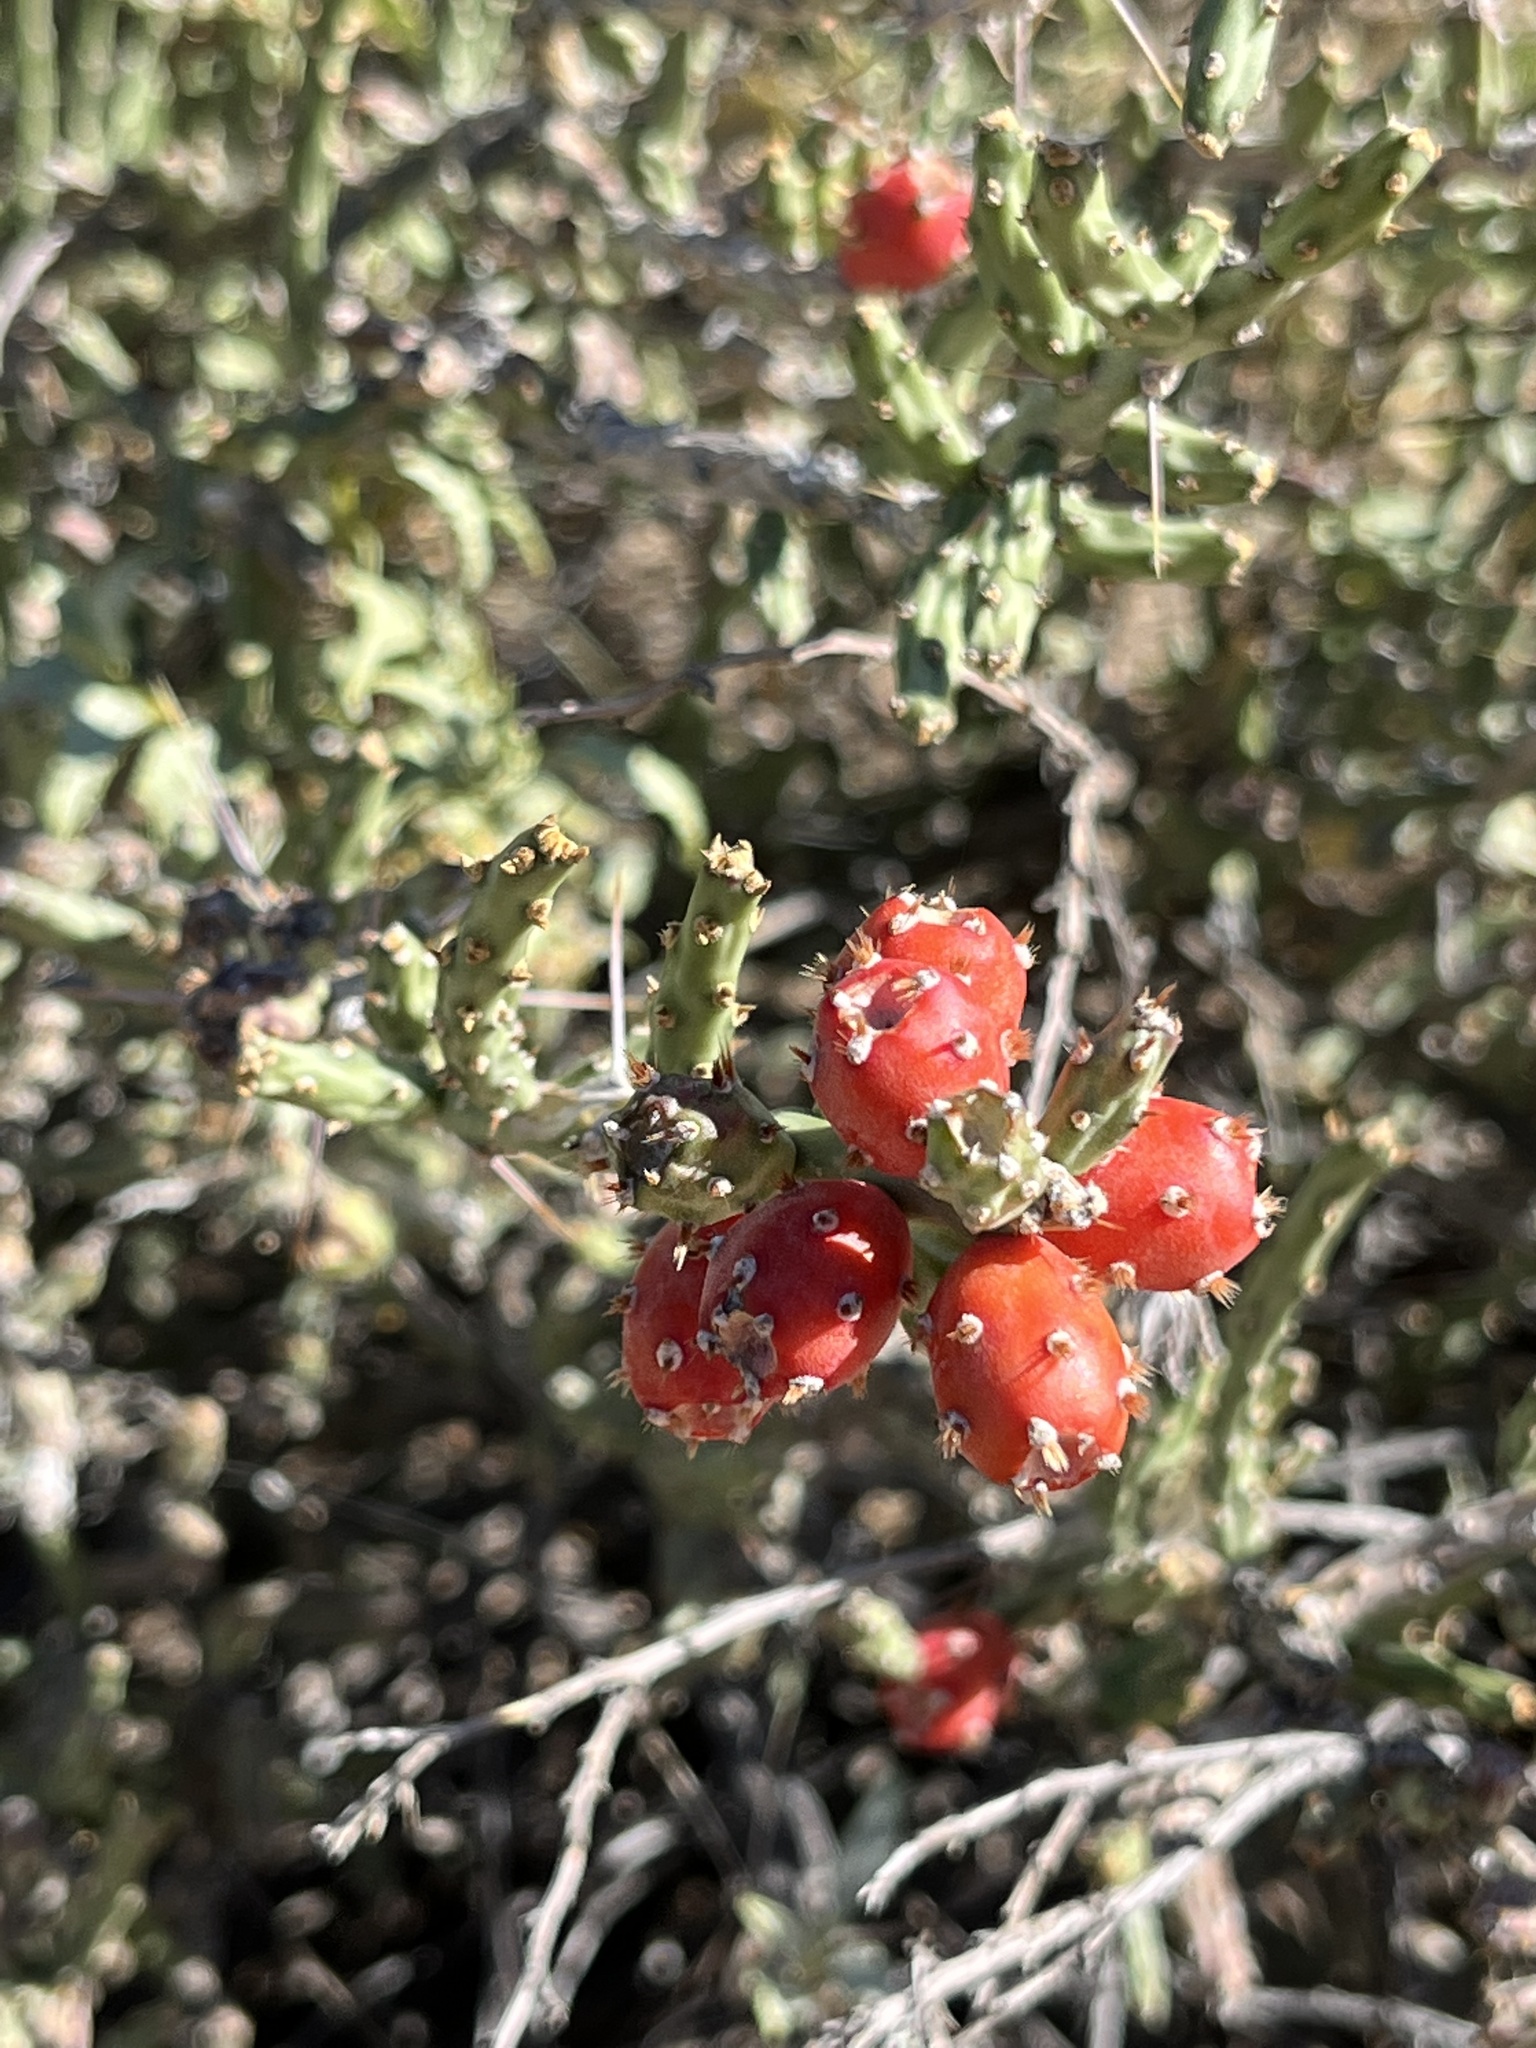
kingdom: Plantae
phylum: Tracheophyta
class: Magnoliopsida
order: Caryophyllales
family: Cactaceae
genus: Cylindropuntia
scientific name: Cylindropuntia leptocaulis
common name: Christmas cactus
